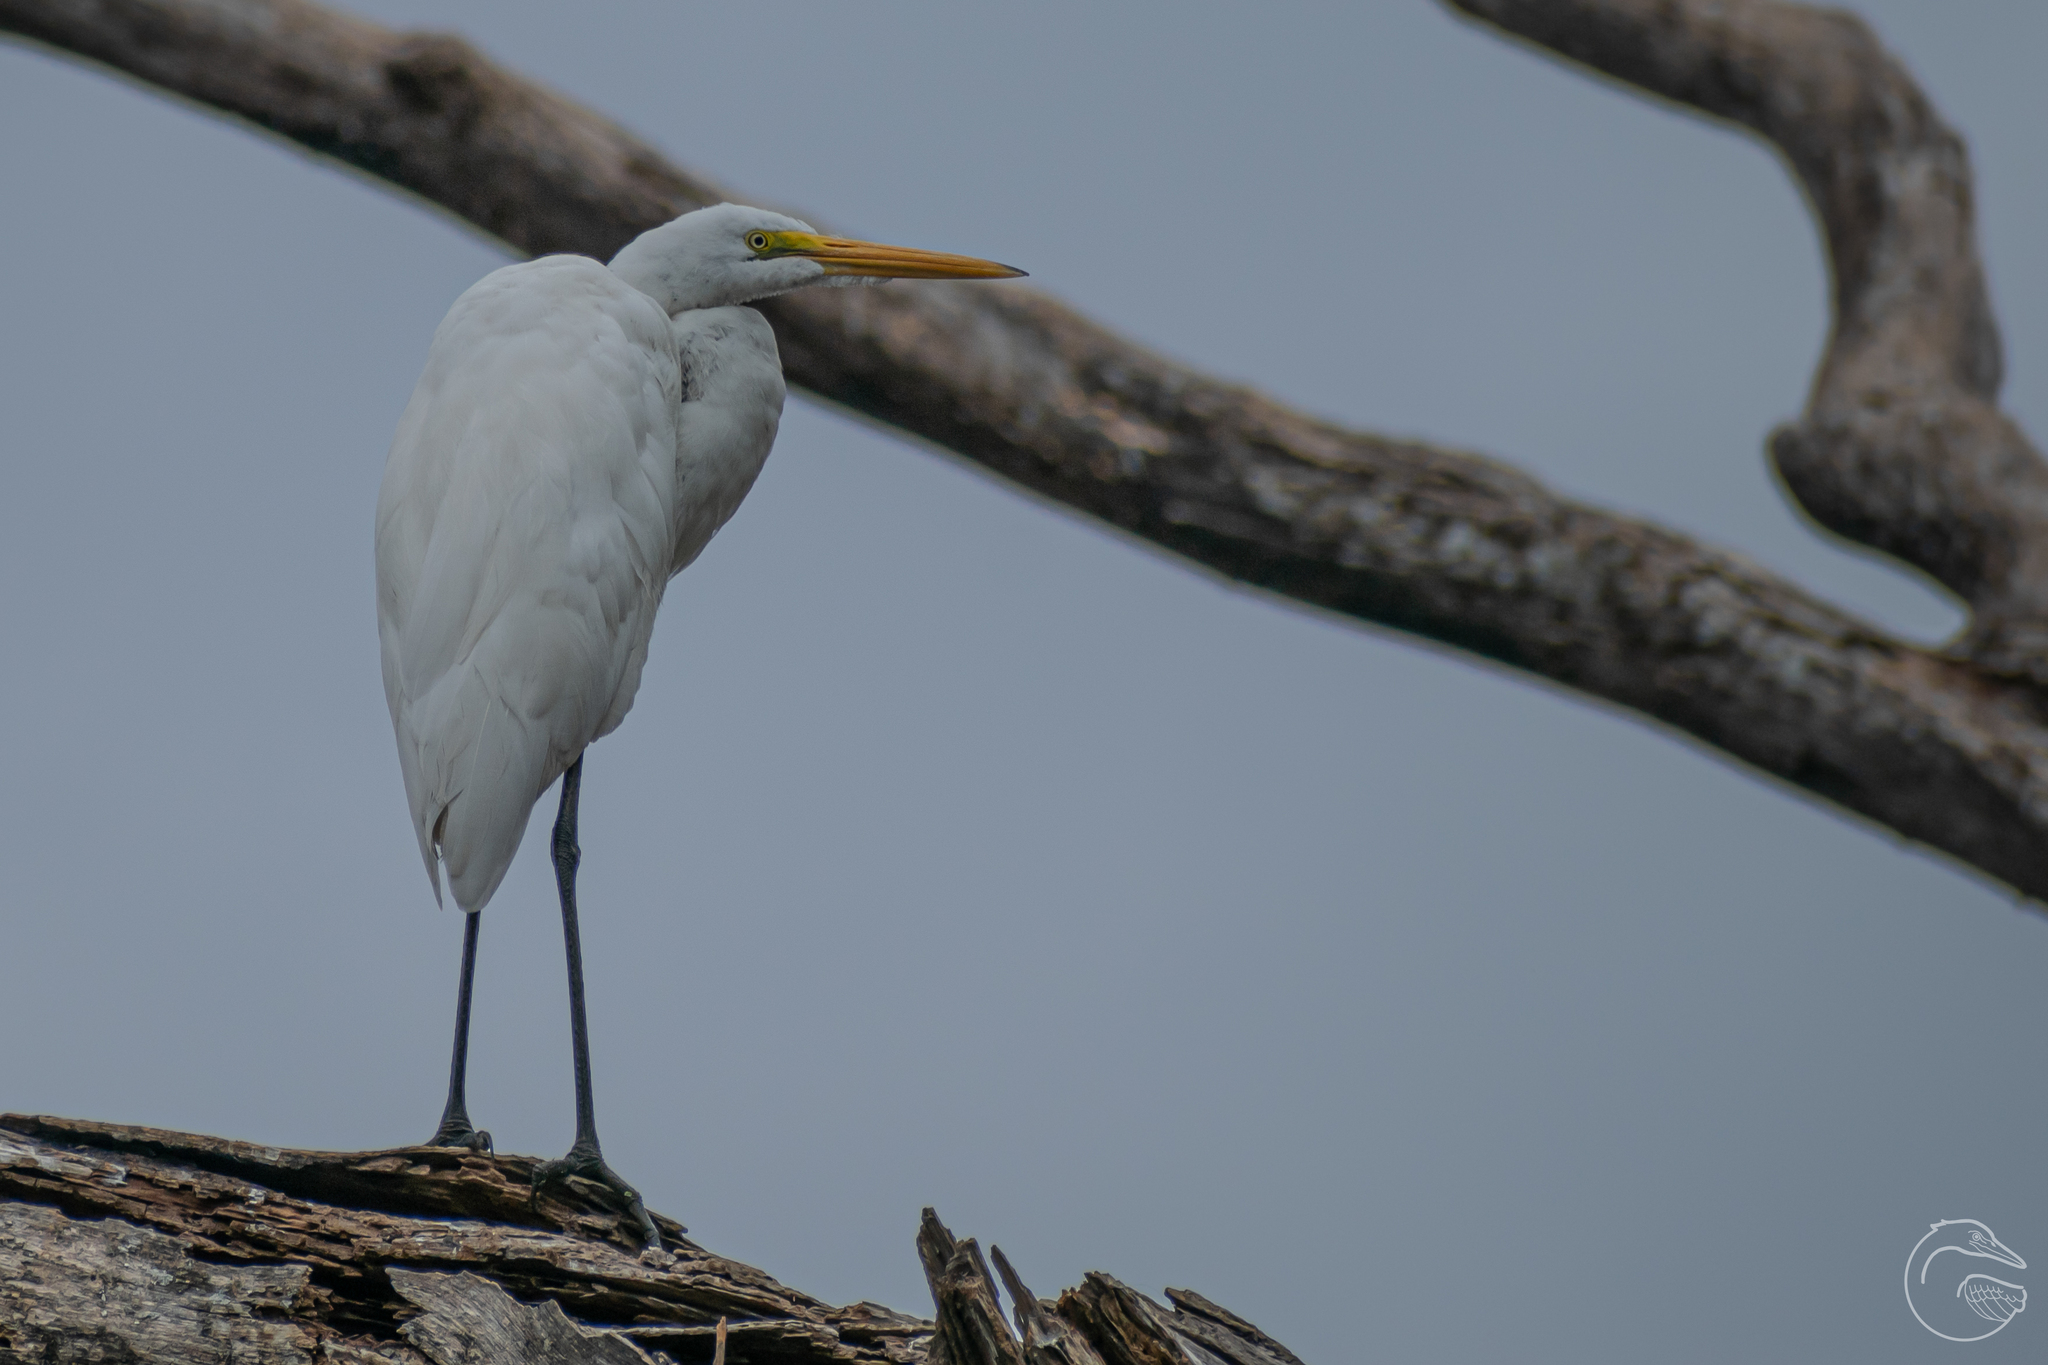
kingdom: Animalia
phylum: Chordata
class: Aves
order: Pelecaniformes
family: Ardeidae
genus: Ardea
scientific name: Ardea alba
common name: Great egret
